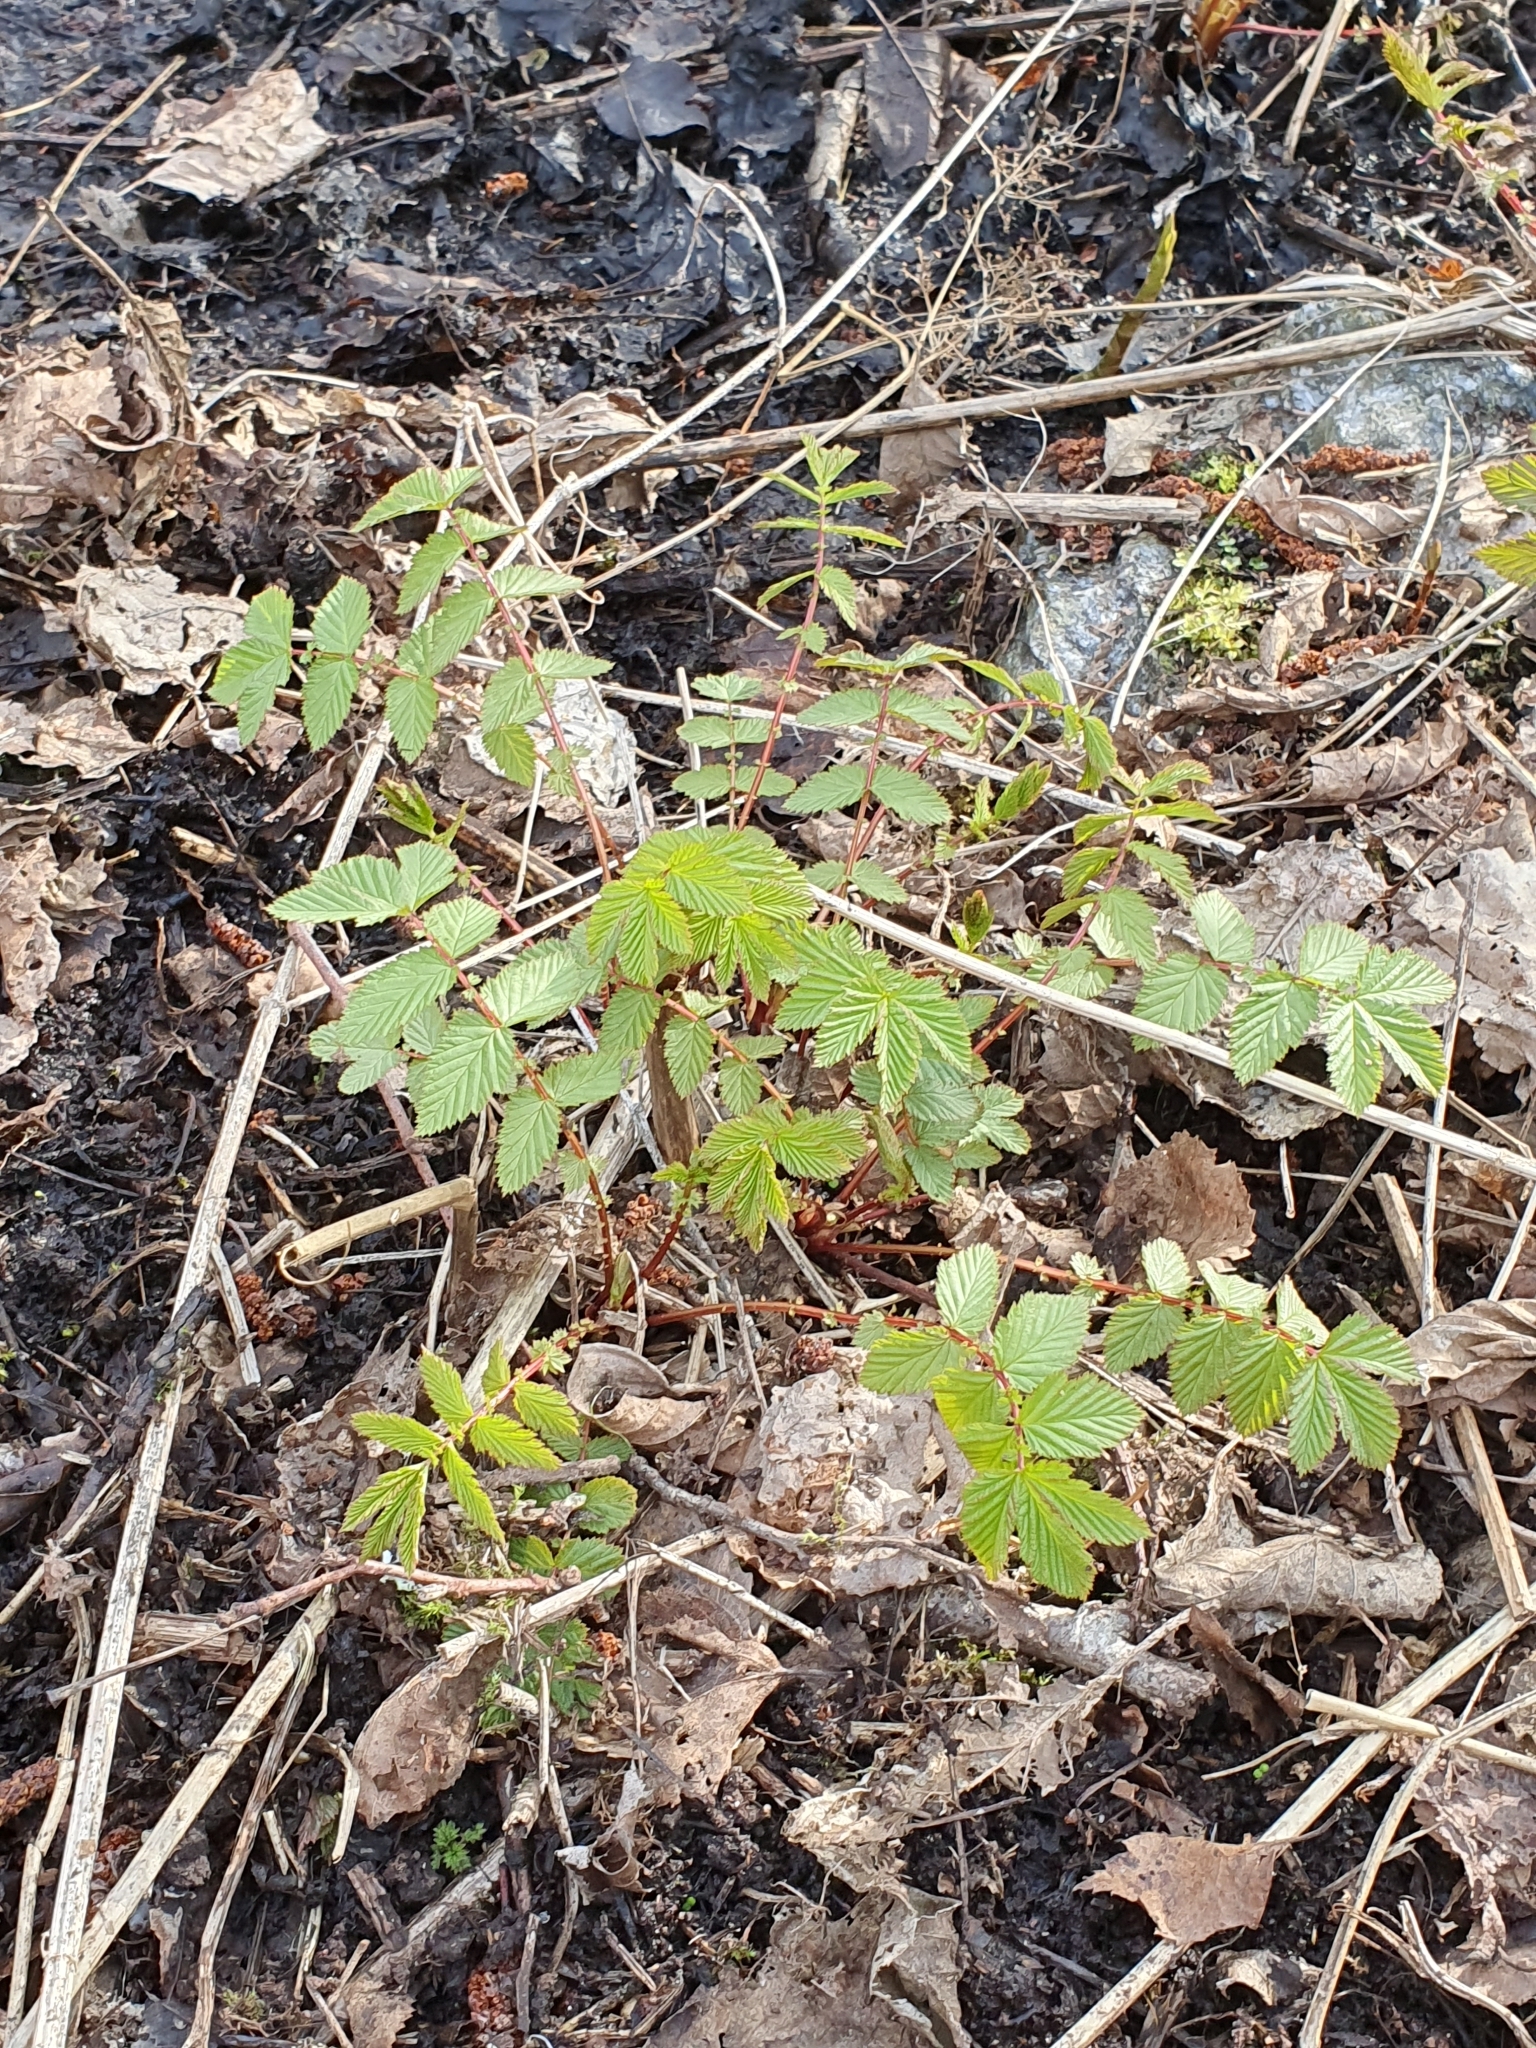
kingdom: Plantae
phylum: Tracheophyta
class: Magnoliopsida
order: Rosales
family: Rosaceae
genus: Filipendula
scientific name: Filipendula ulmaria
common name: Meadowsweet
